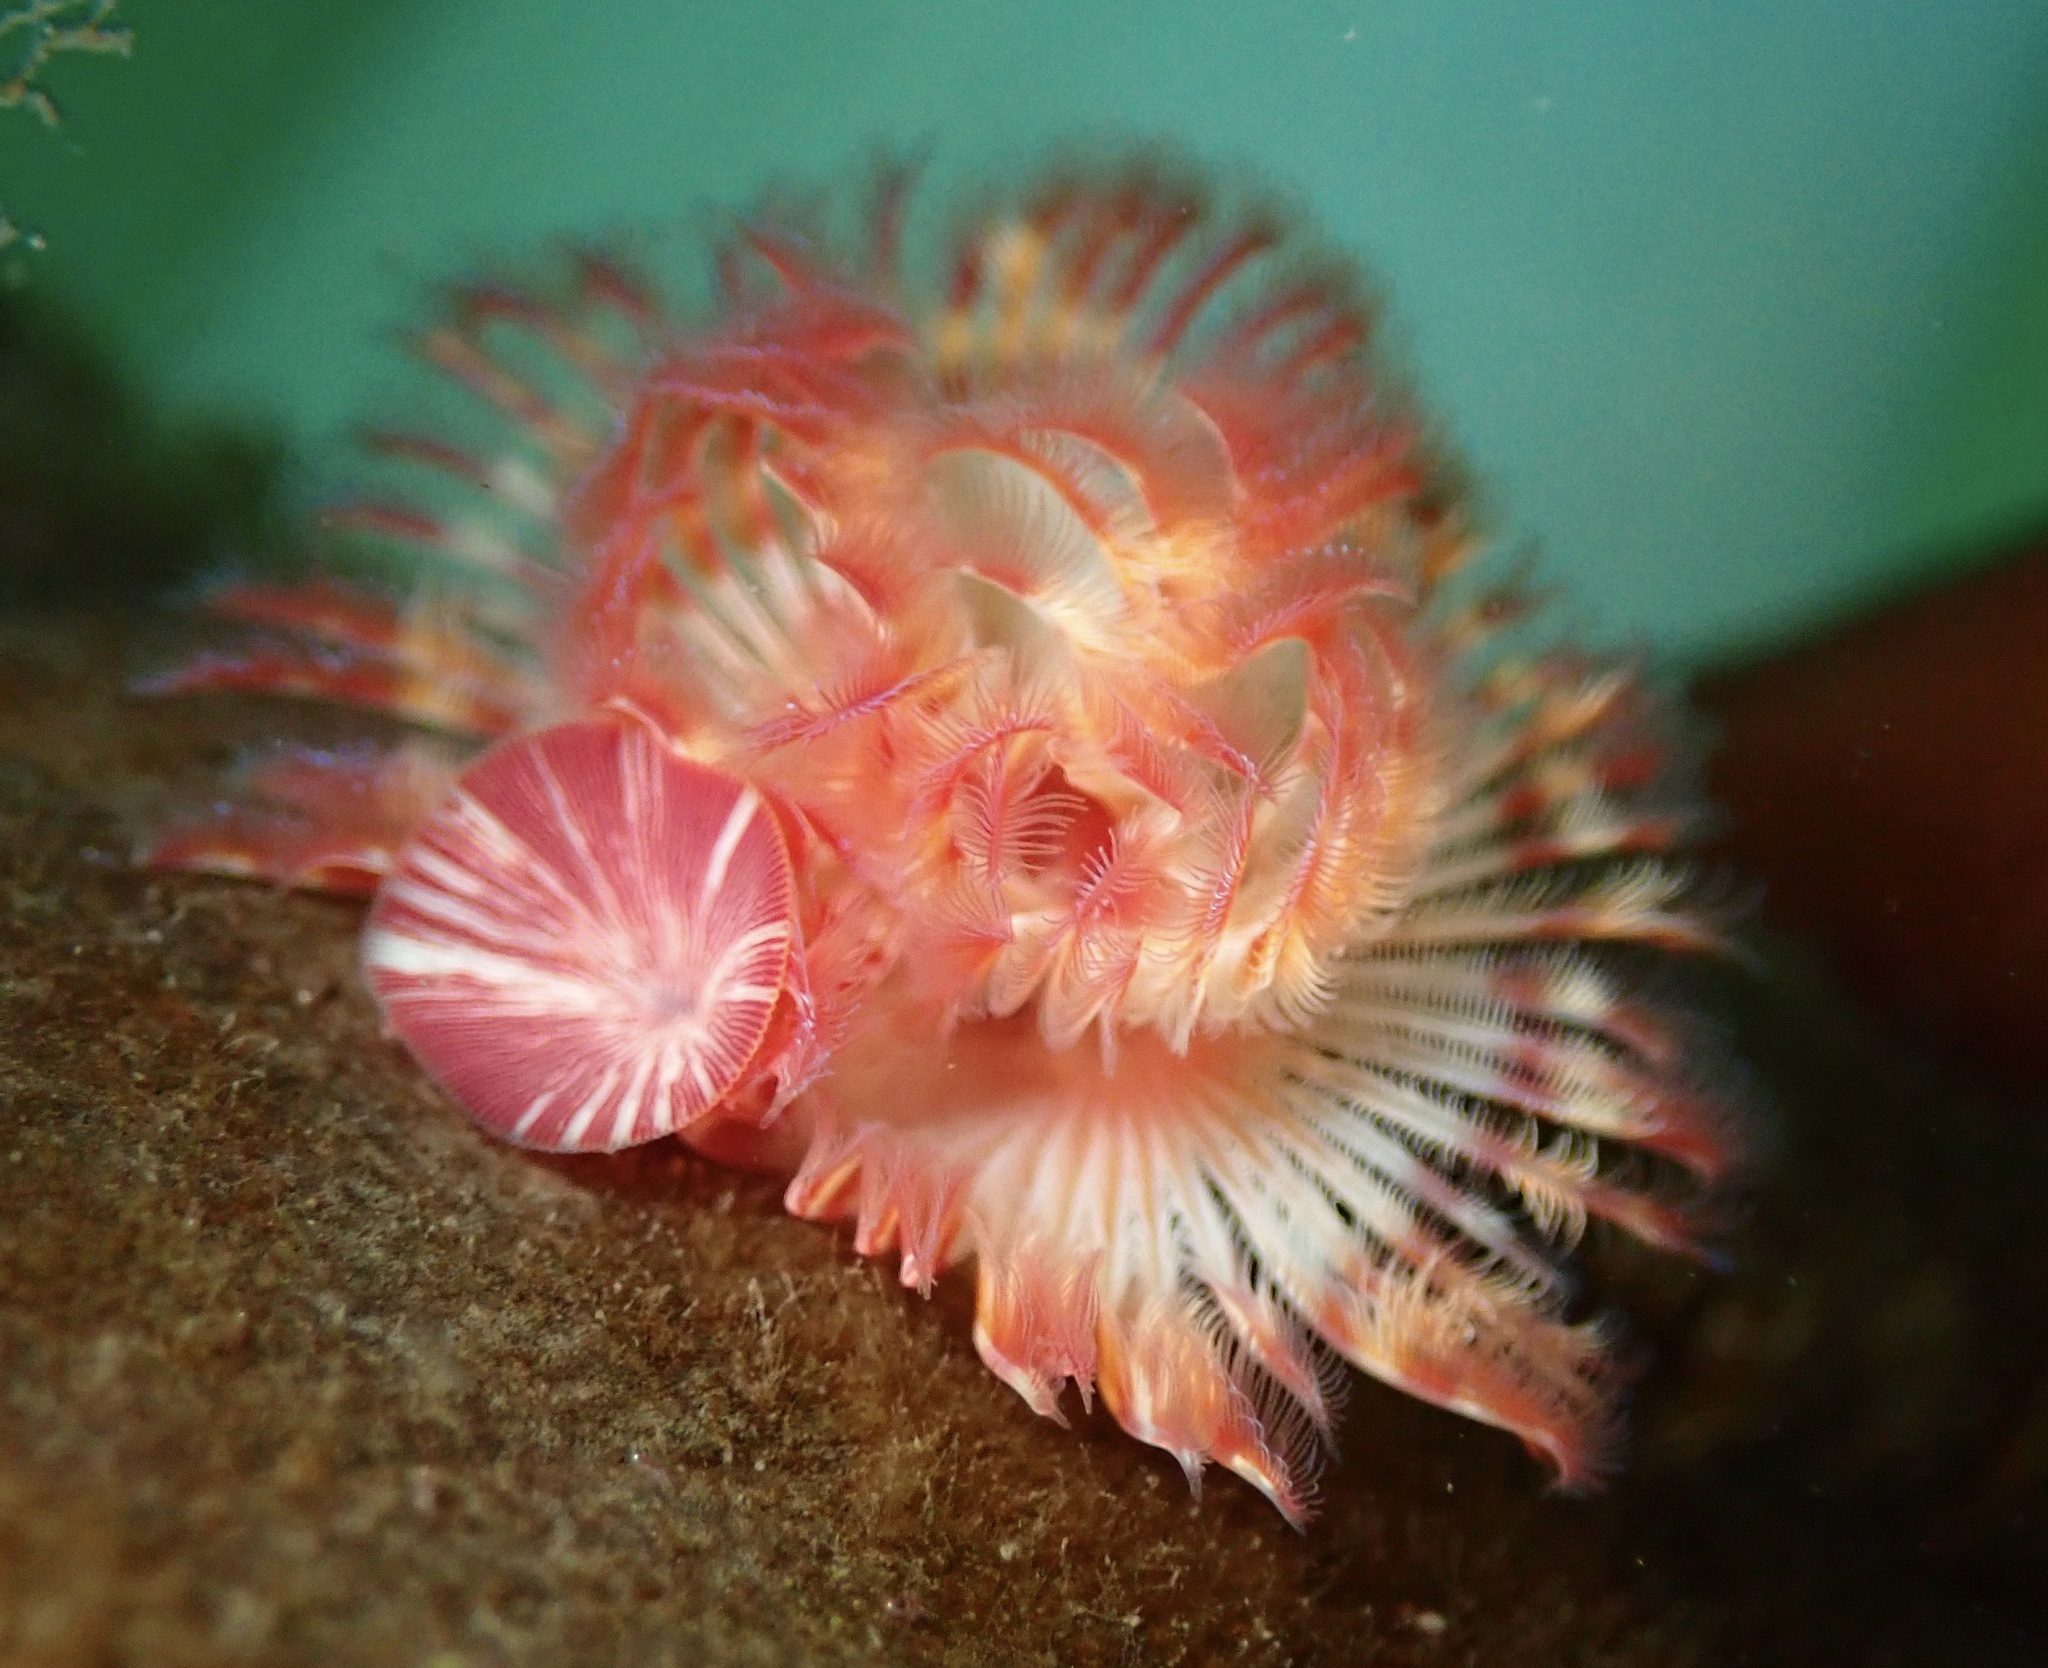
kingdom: Animalia
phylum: Annelida
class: Polychaeta
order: Sabellida
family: Serpulidae
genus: Serpula
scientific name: Serpula columbiana
